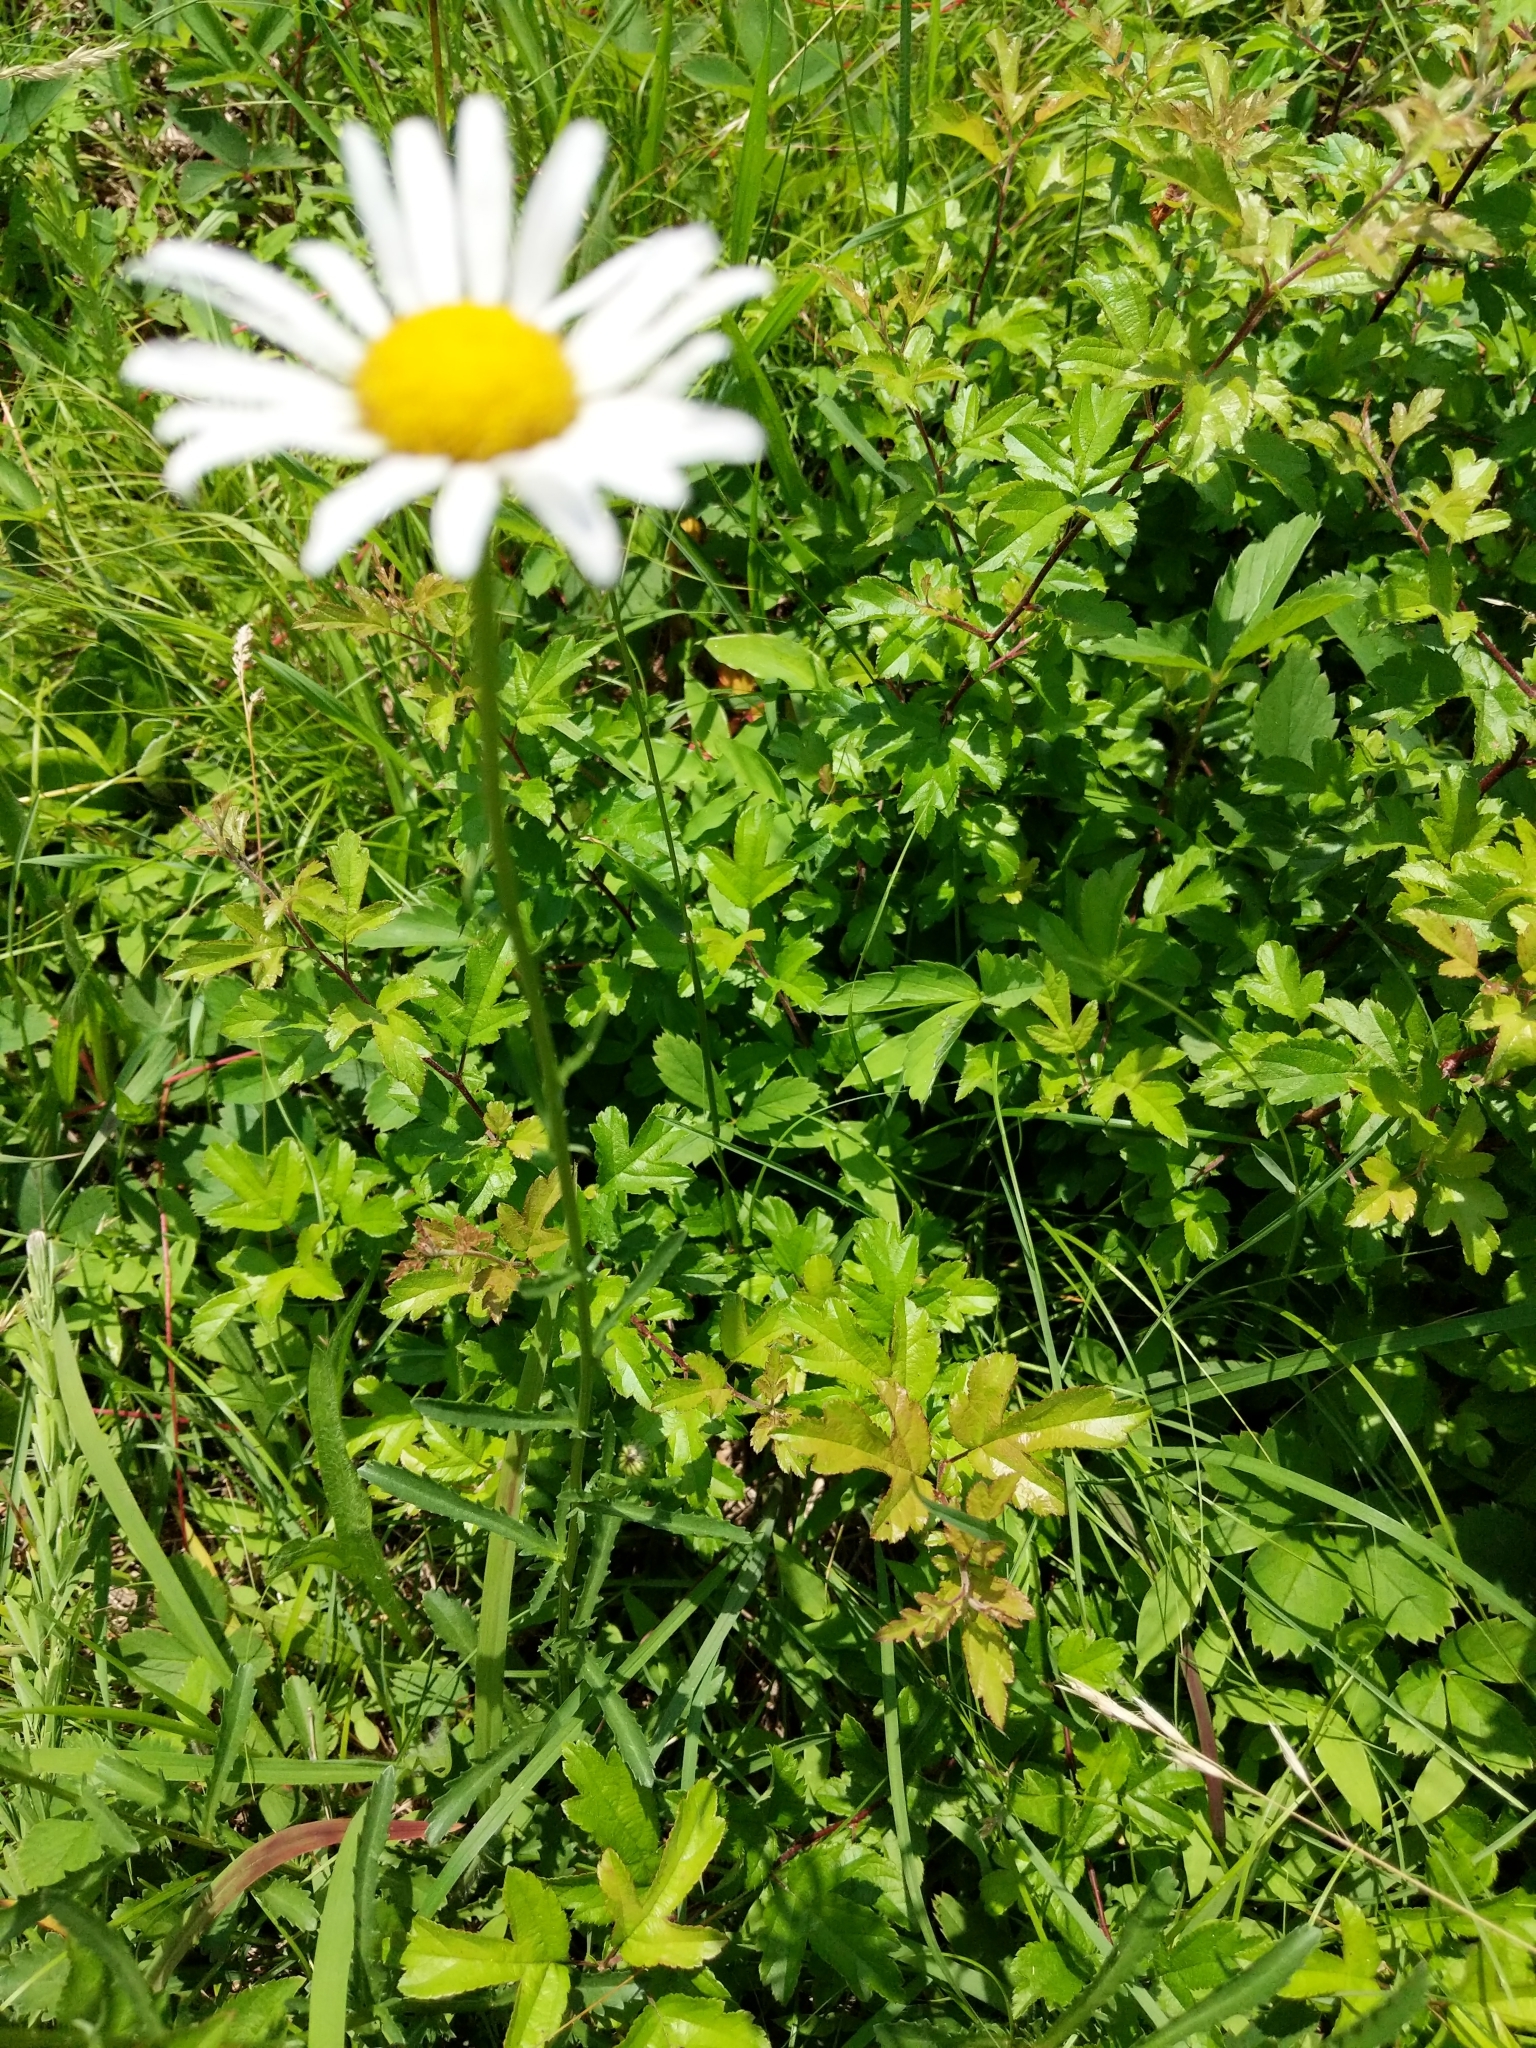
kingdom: Plantae
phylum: Tracheophyta
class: Magnoliopsida
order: Asterales
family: Asteraceae
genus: Leucanthemum
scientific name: Leucanthemum vulgare
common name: Oxeye daisy
